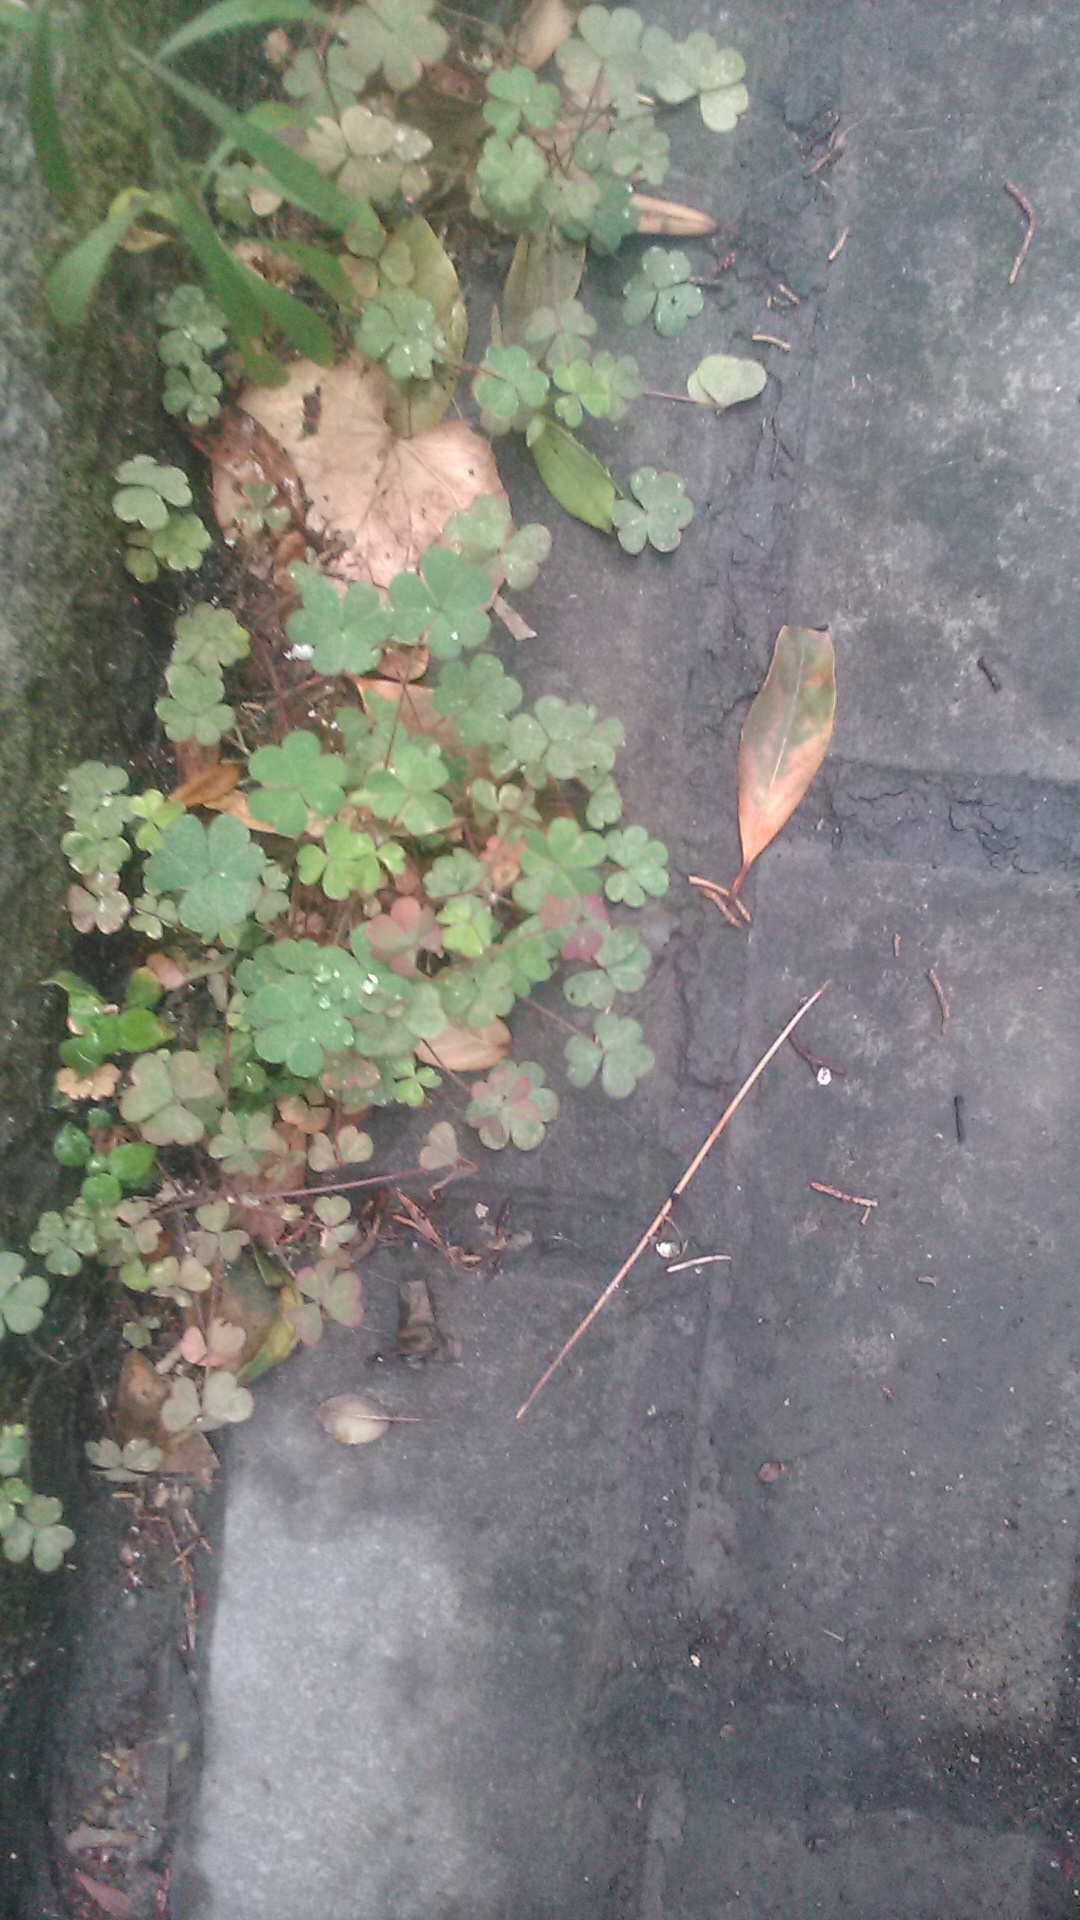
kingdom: Plantae
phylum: Tracheophyta
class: Magnoliopsida
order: Oxalidales
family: Oxalidaceae
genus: Oxalis
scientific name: Oxalis corniculata
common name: Procumbent yellow-sorrel
